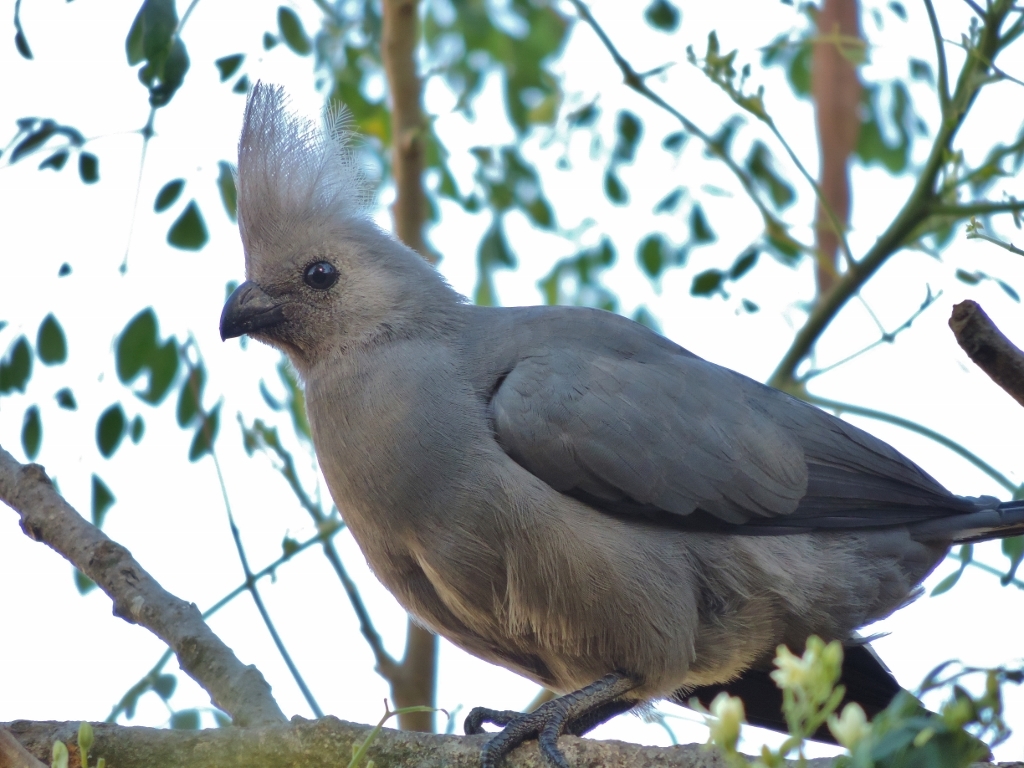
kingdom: Animalia
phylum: Chordata
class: Aves
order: Musophagiformes
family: Musophagidae
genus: Corythaixoides
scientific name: Corythaixoides concolor
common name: Grey go-away-bird
